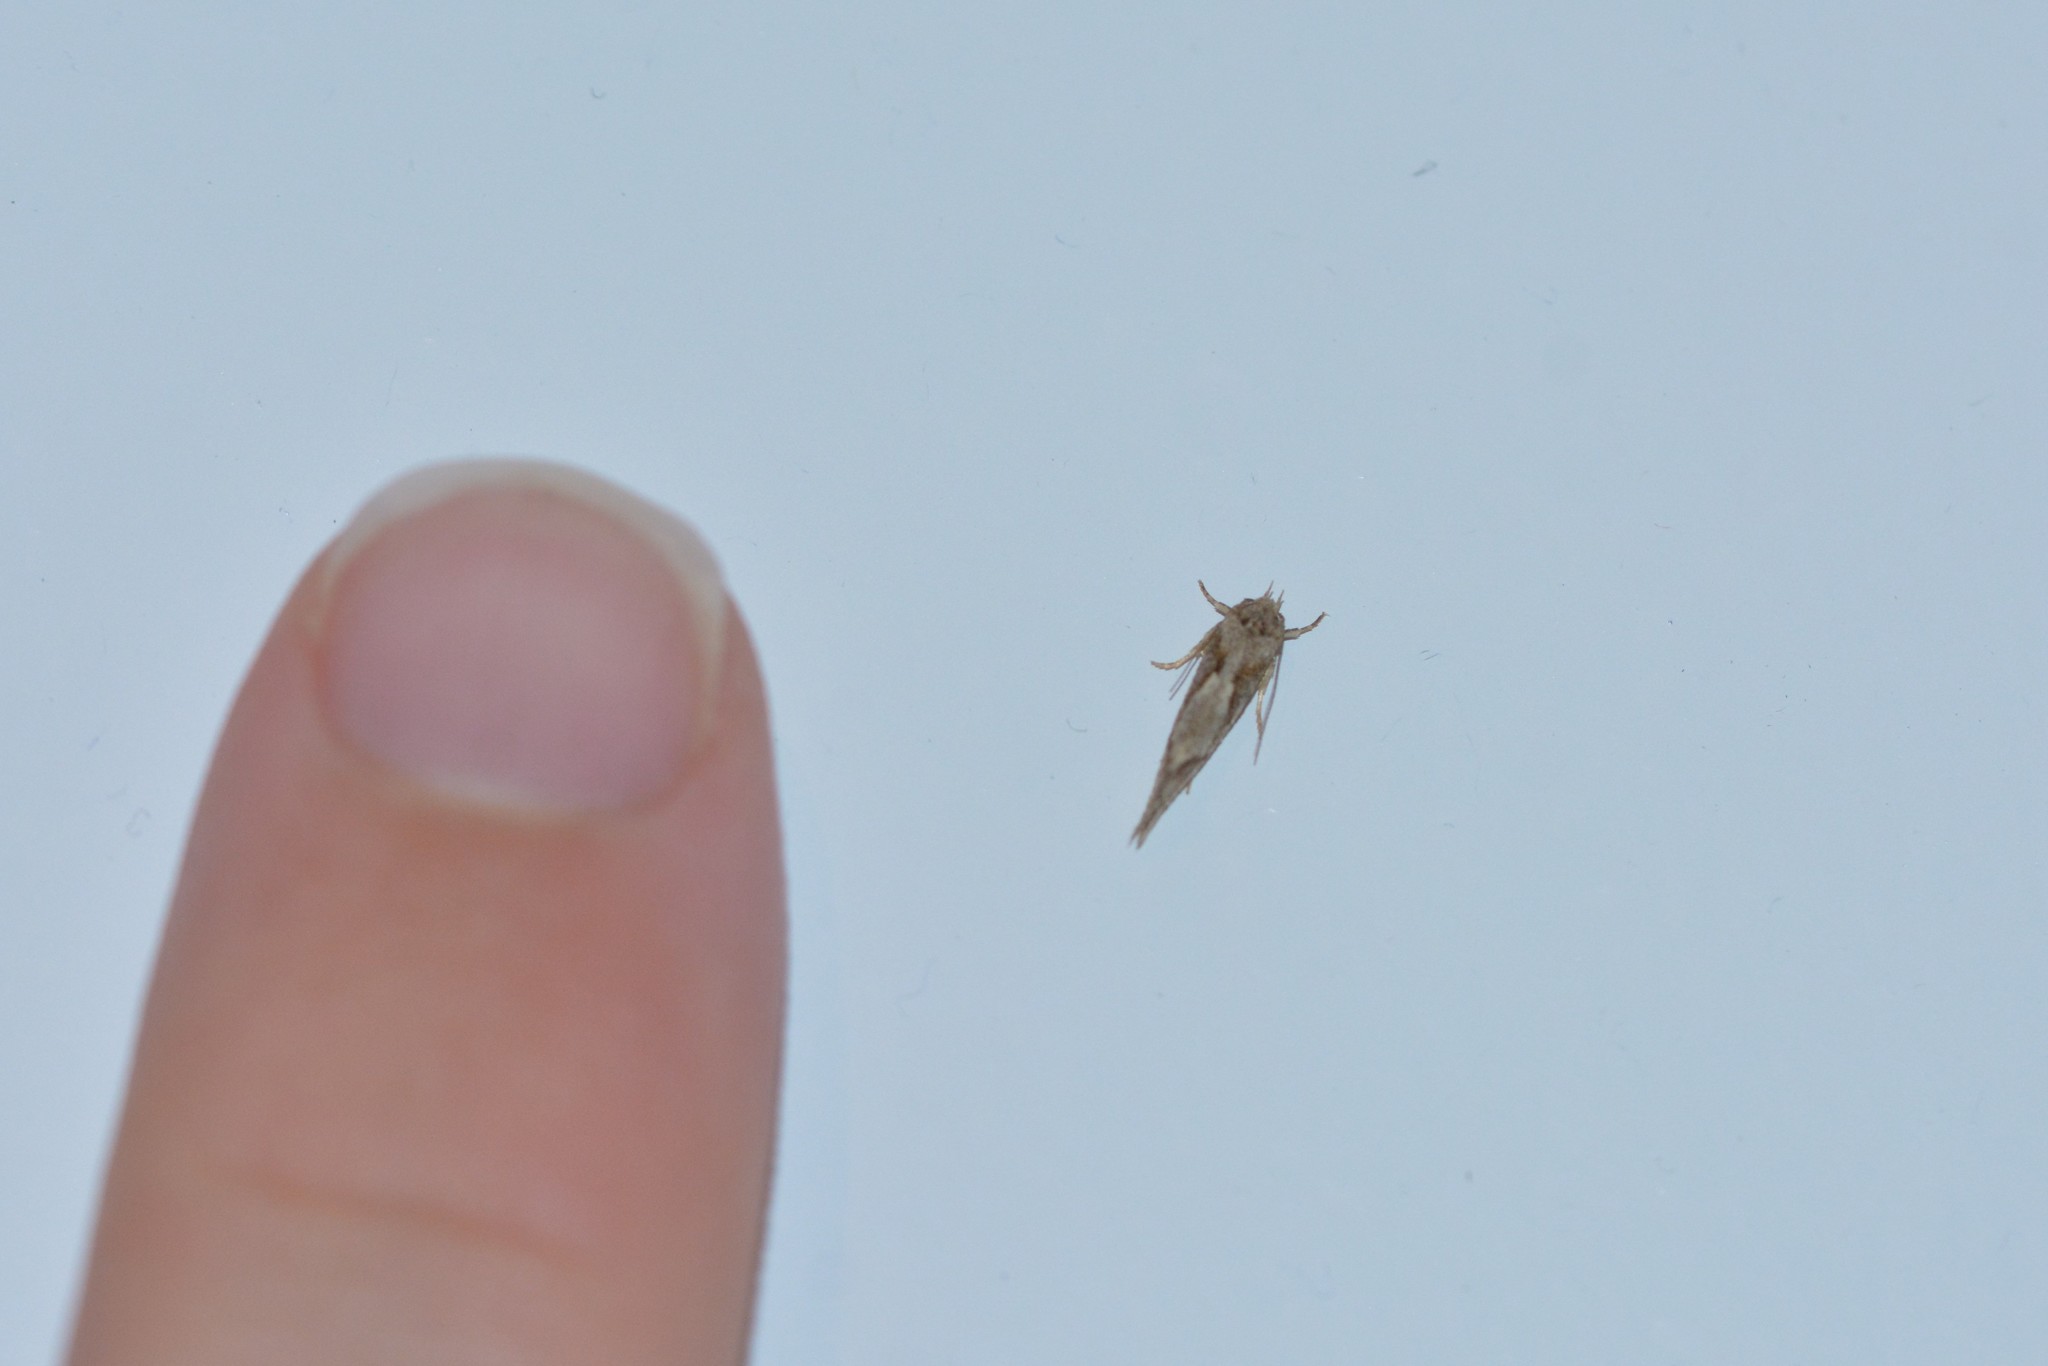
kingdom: Animalia
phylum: Arthropoda
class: Insecta
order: Lepidoptera
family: Oecophoridae
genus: Tingena
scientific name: Tingena hemimochla
